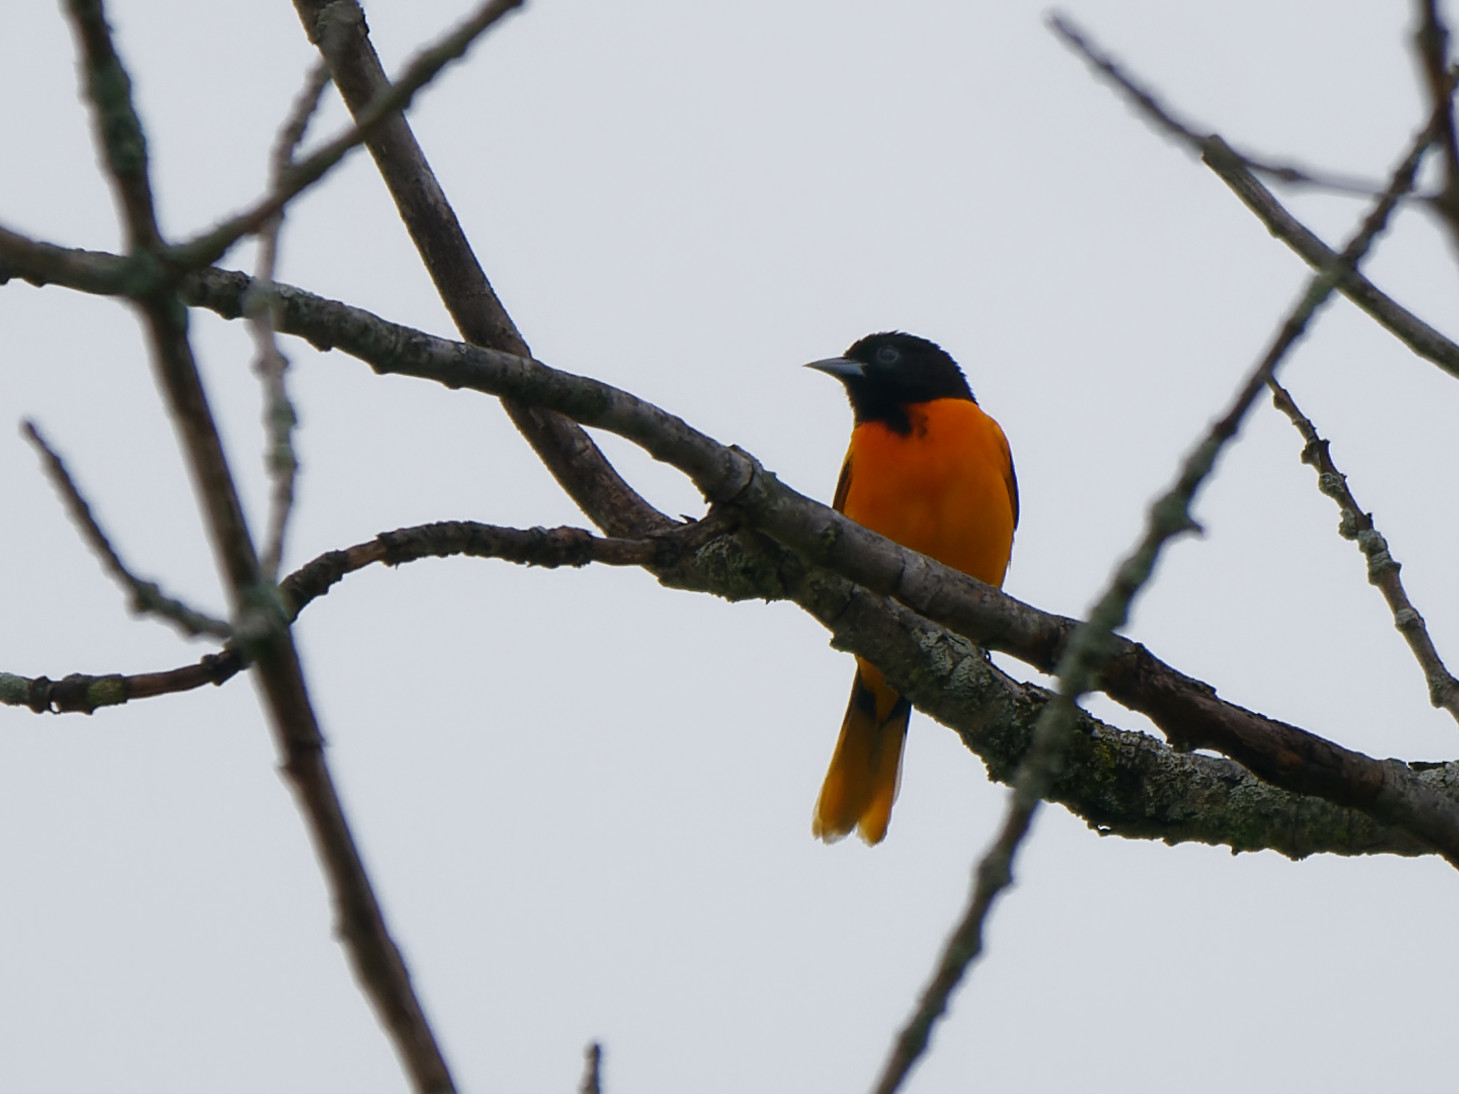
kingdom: Animalia
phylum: Chordata
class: Aves
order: Passeriformes
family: Icteridae
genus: Icterus
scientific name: Icterus galbula
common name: Baltimore oriole
